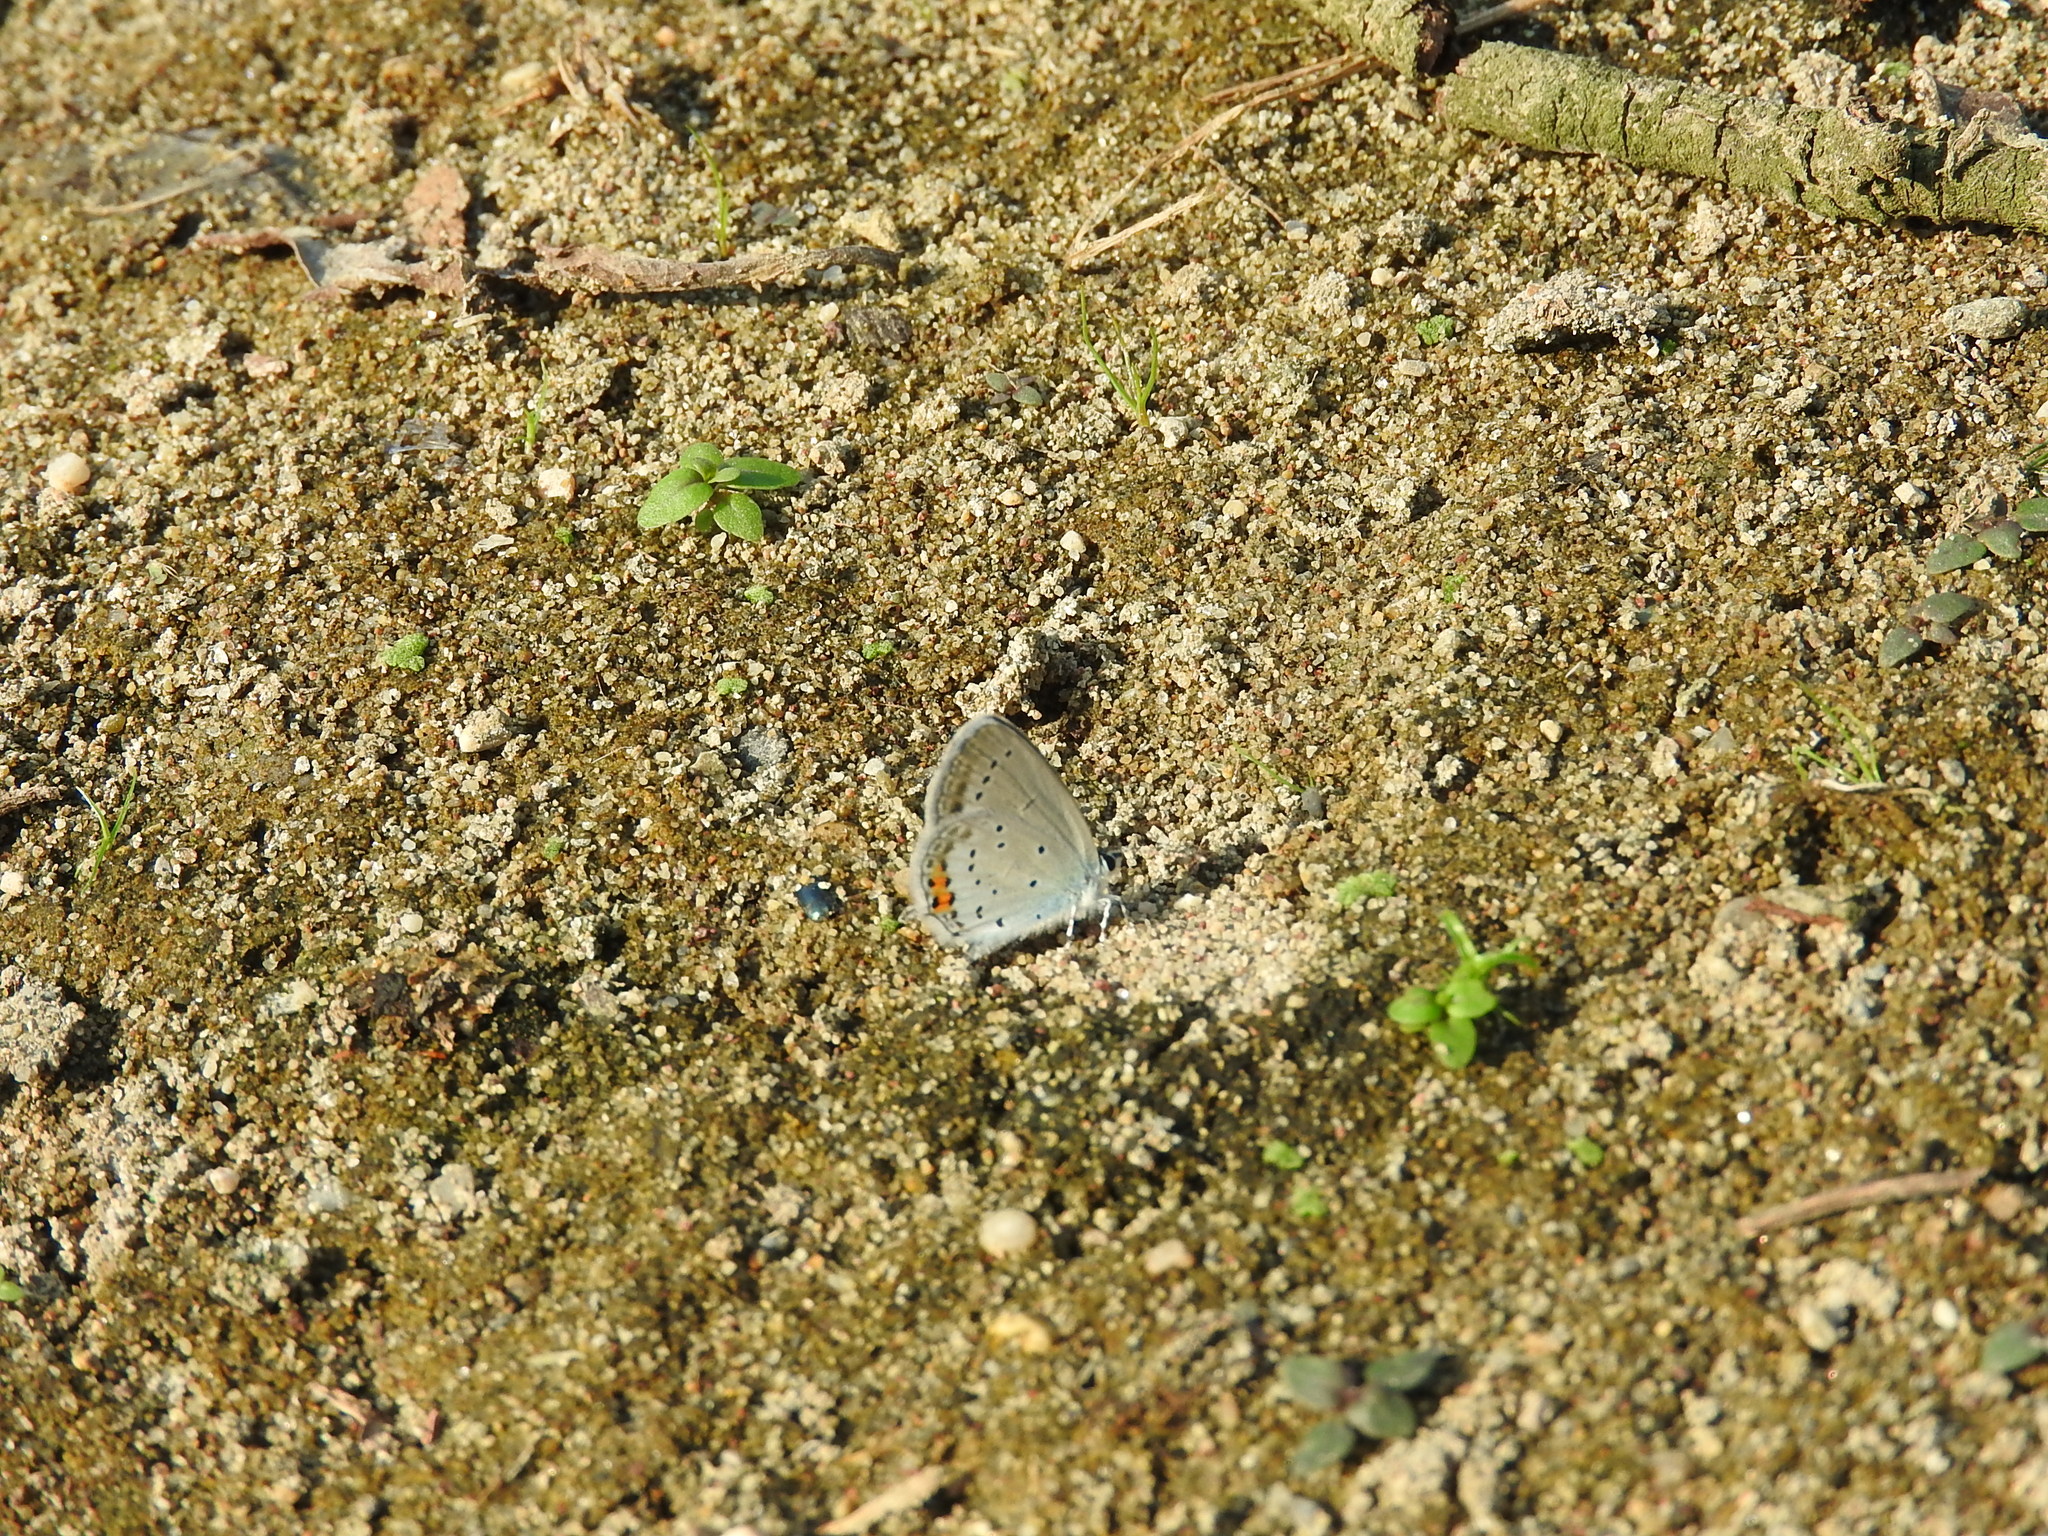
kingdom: Animalia
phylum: Arthropoda
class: Insecta
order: Lepidoptera
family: Lycaenidae
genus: Elkalyce
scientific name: Elkalyce argiades
